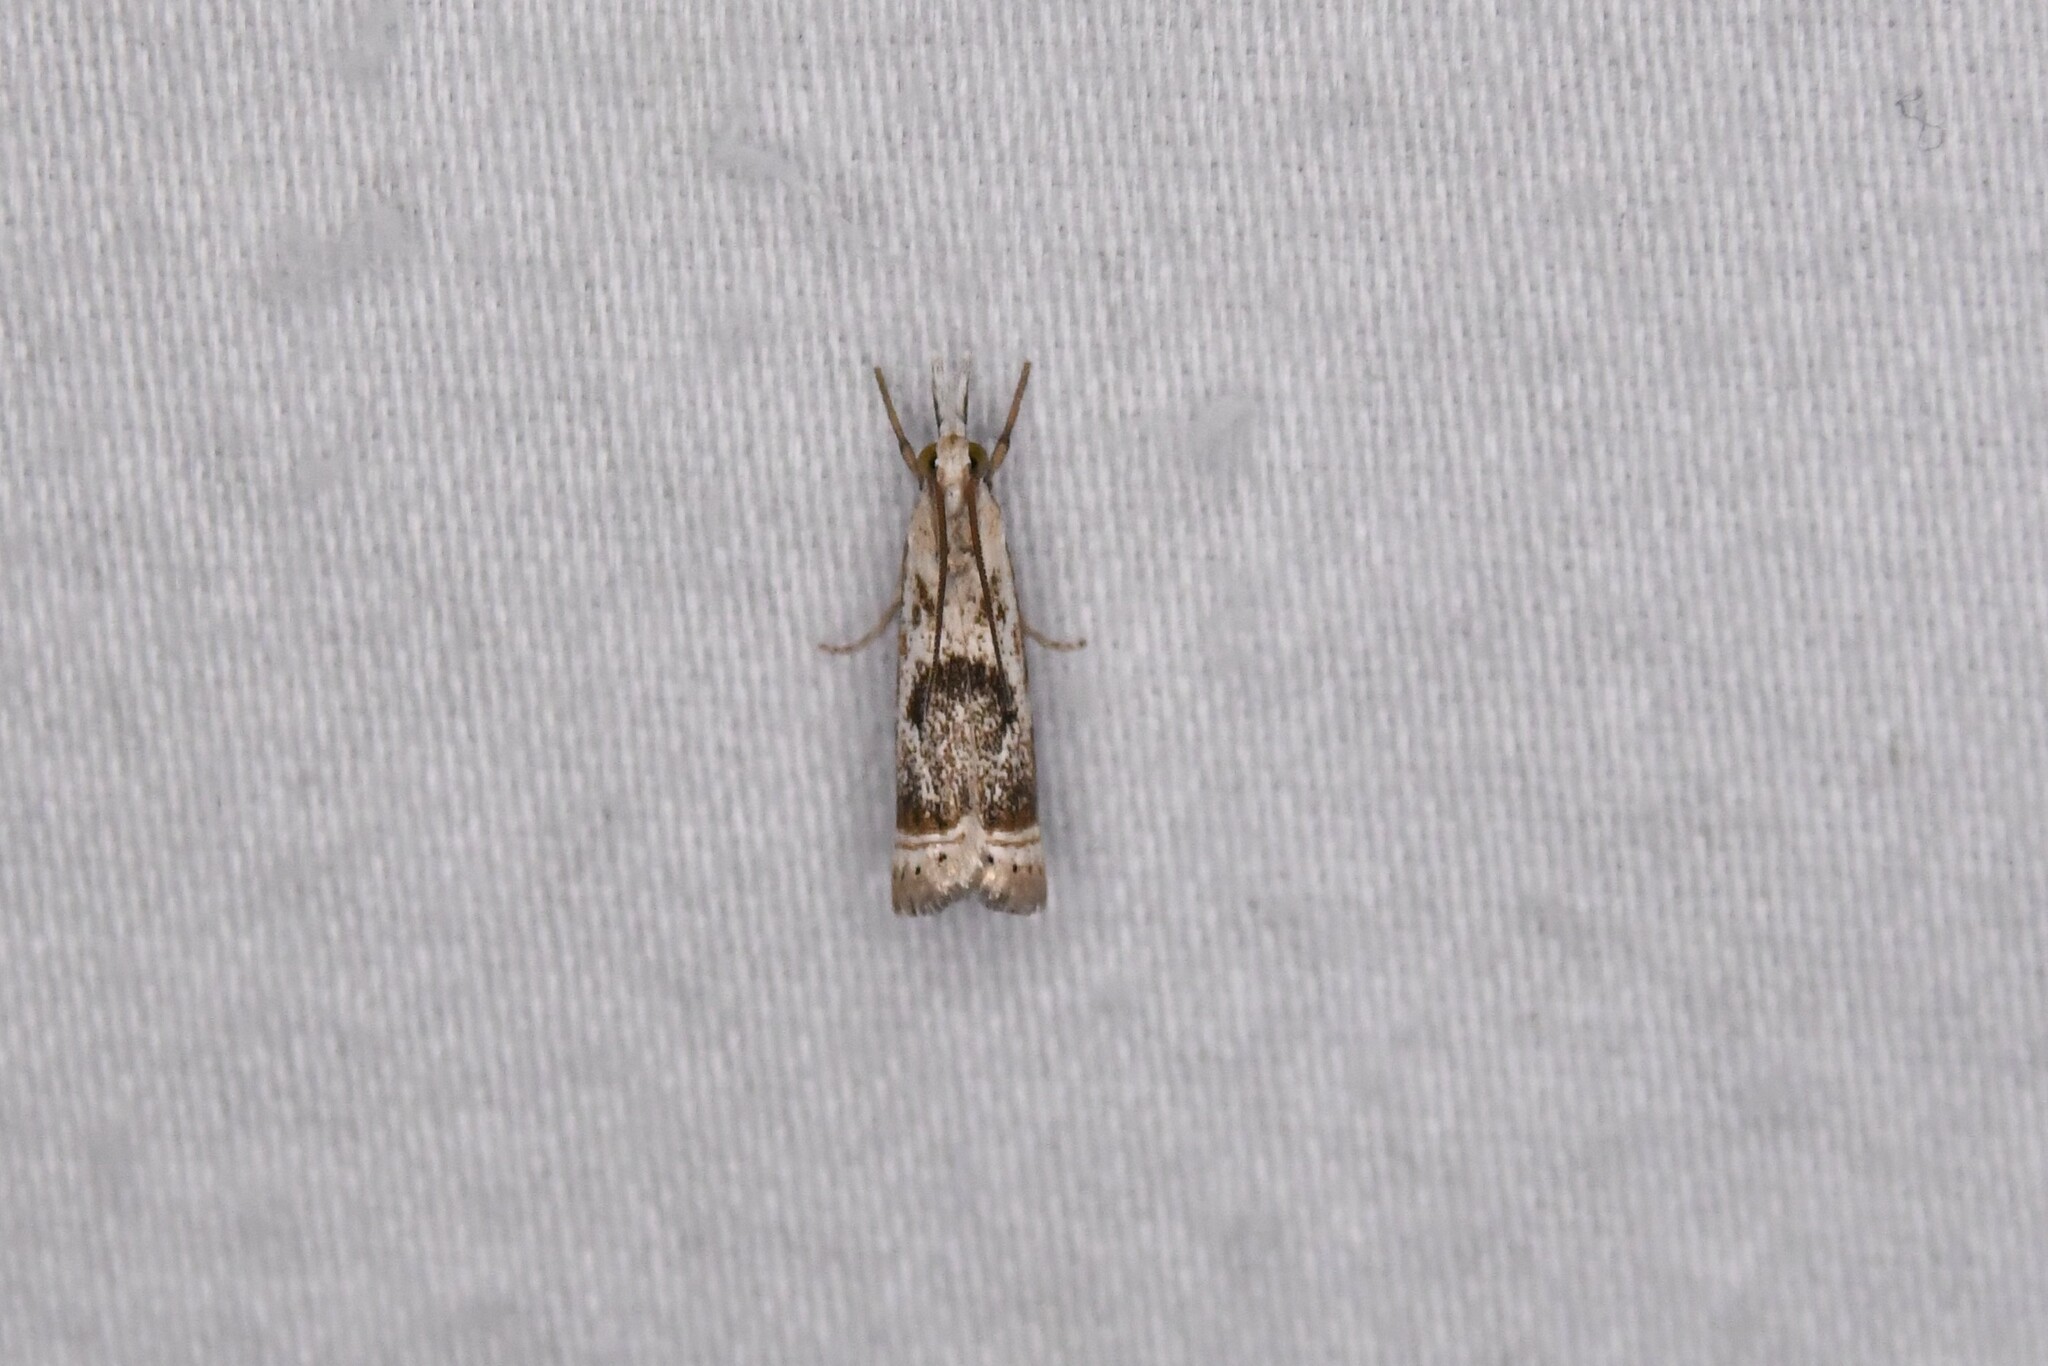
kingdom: Animalia
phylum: Arthropoda
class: Insecta
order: Lepidoptera
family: Crambidae
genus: Microcrambus
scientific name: Microcrambus elegans
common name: Elegant grass-veneer
